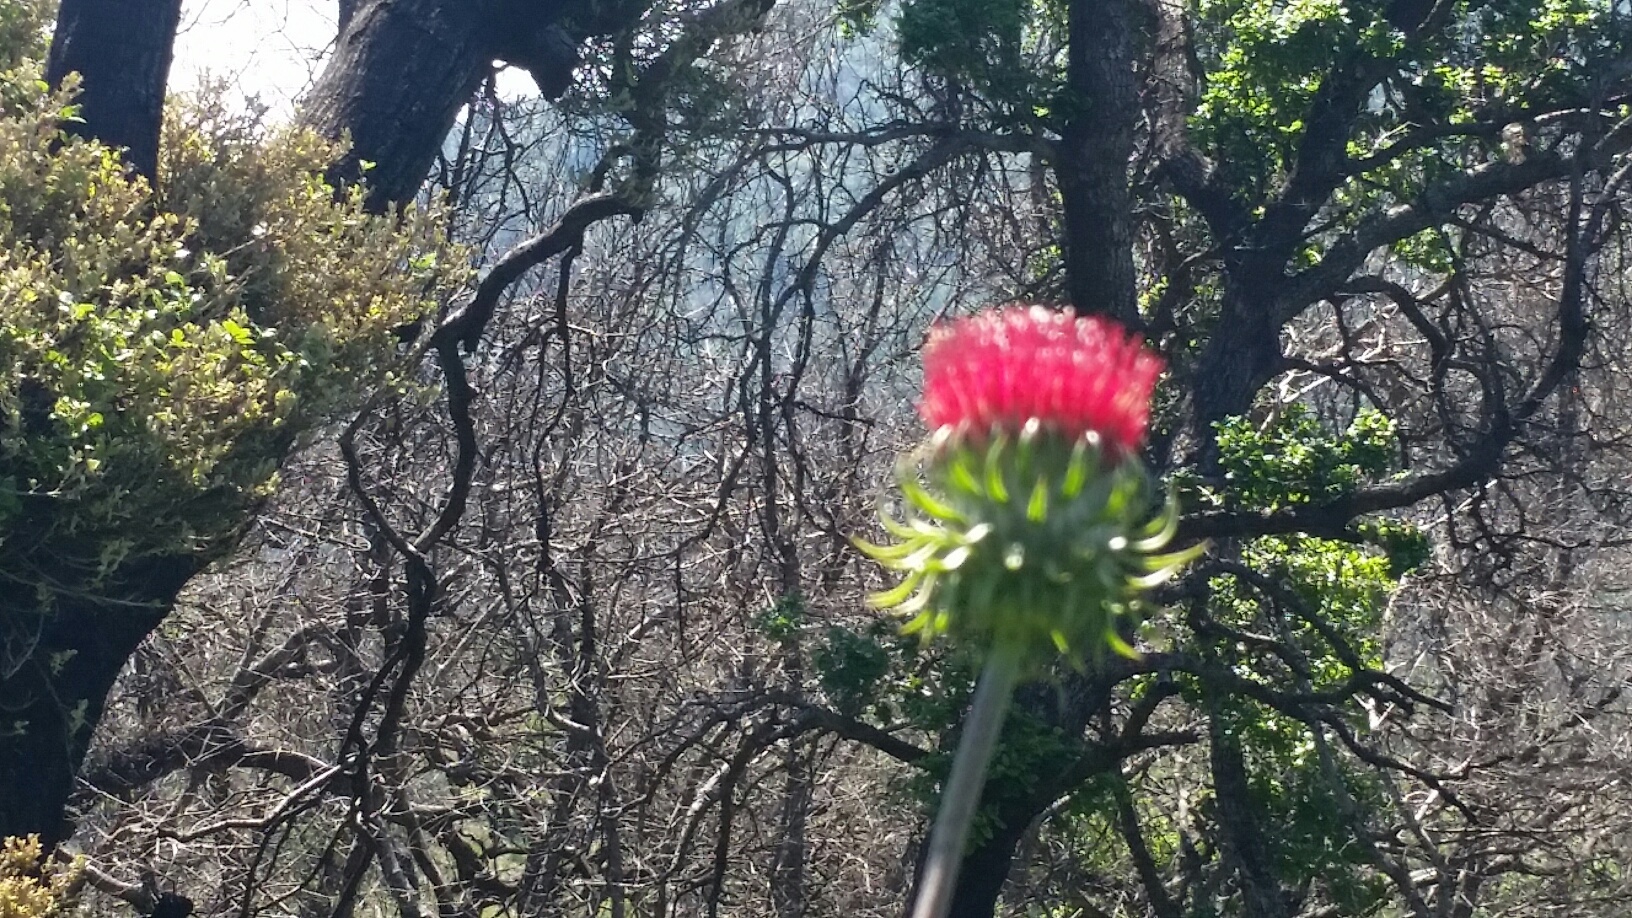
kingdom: Plantae
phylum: Tracheophyta
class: Magnoliopsida
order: Asterales
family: Asteraceae
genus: Cirsium
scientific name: Cirsium occidentale
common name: Western thistle
